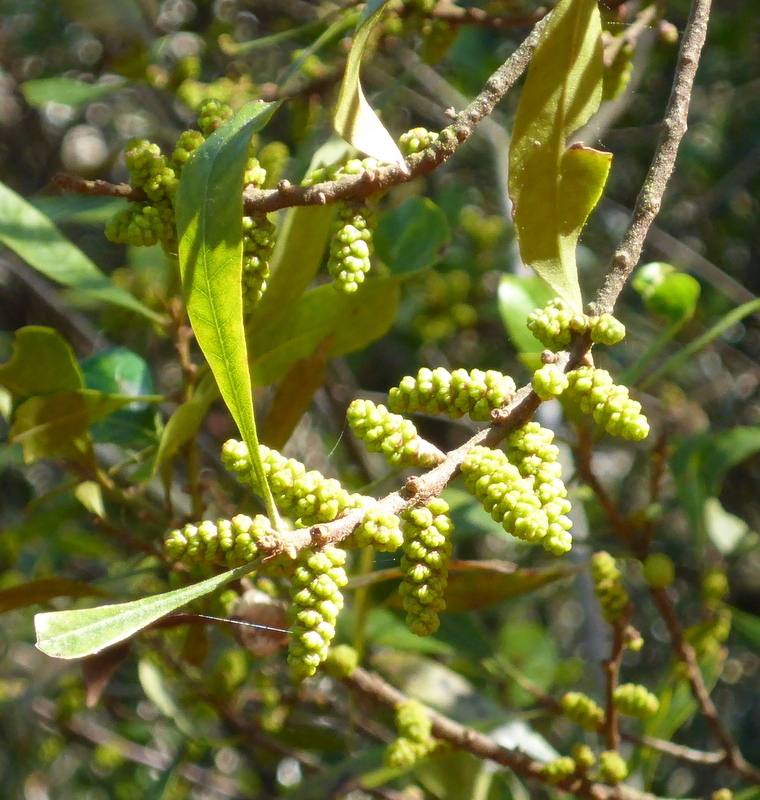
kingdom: Plantae
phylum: Tracheophyta
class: Magnoliopsida
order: Fagales
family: Myricaceae
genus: Morella
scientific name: Morella cerifera
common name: Wax myrtle
